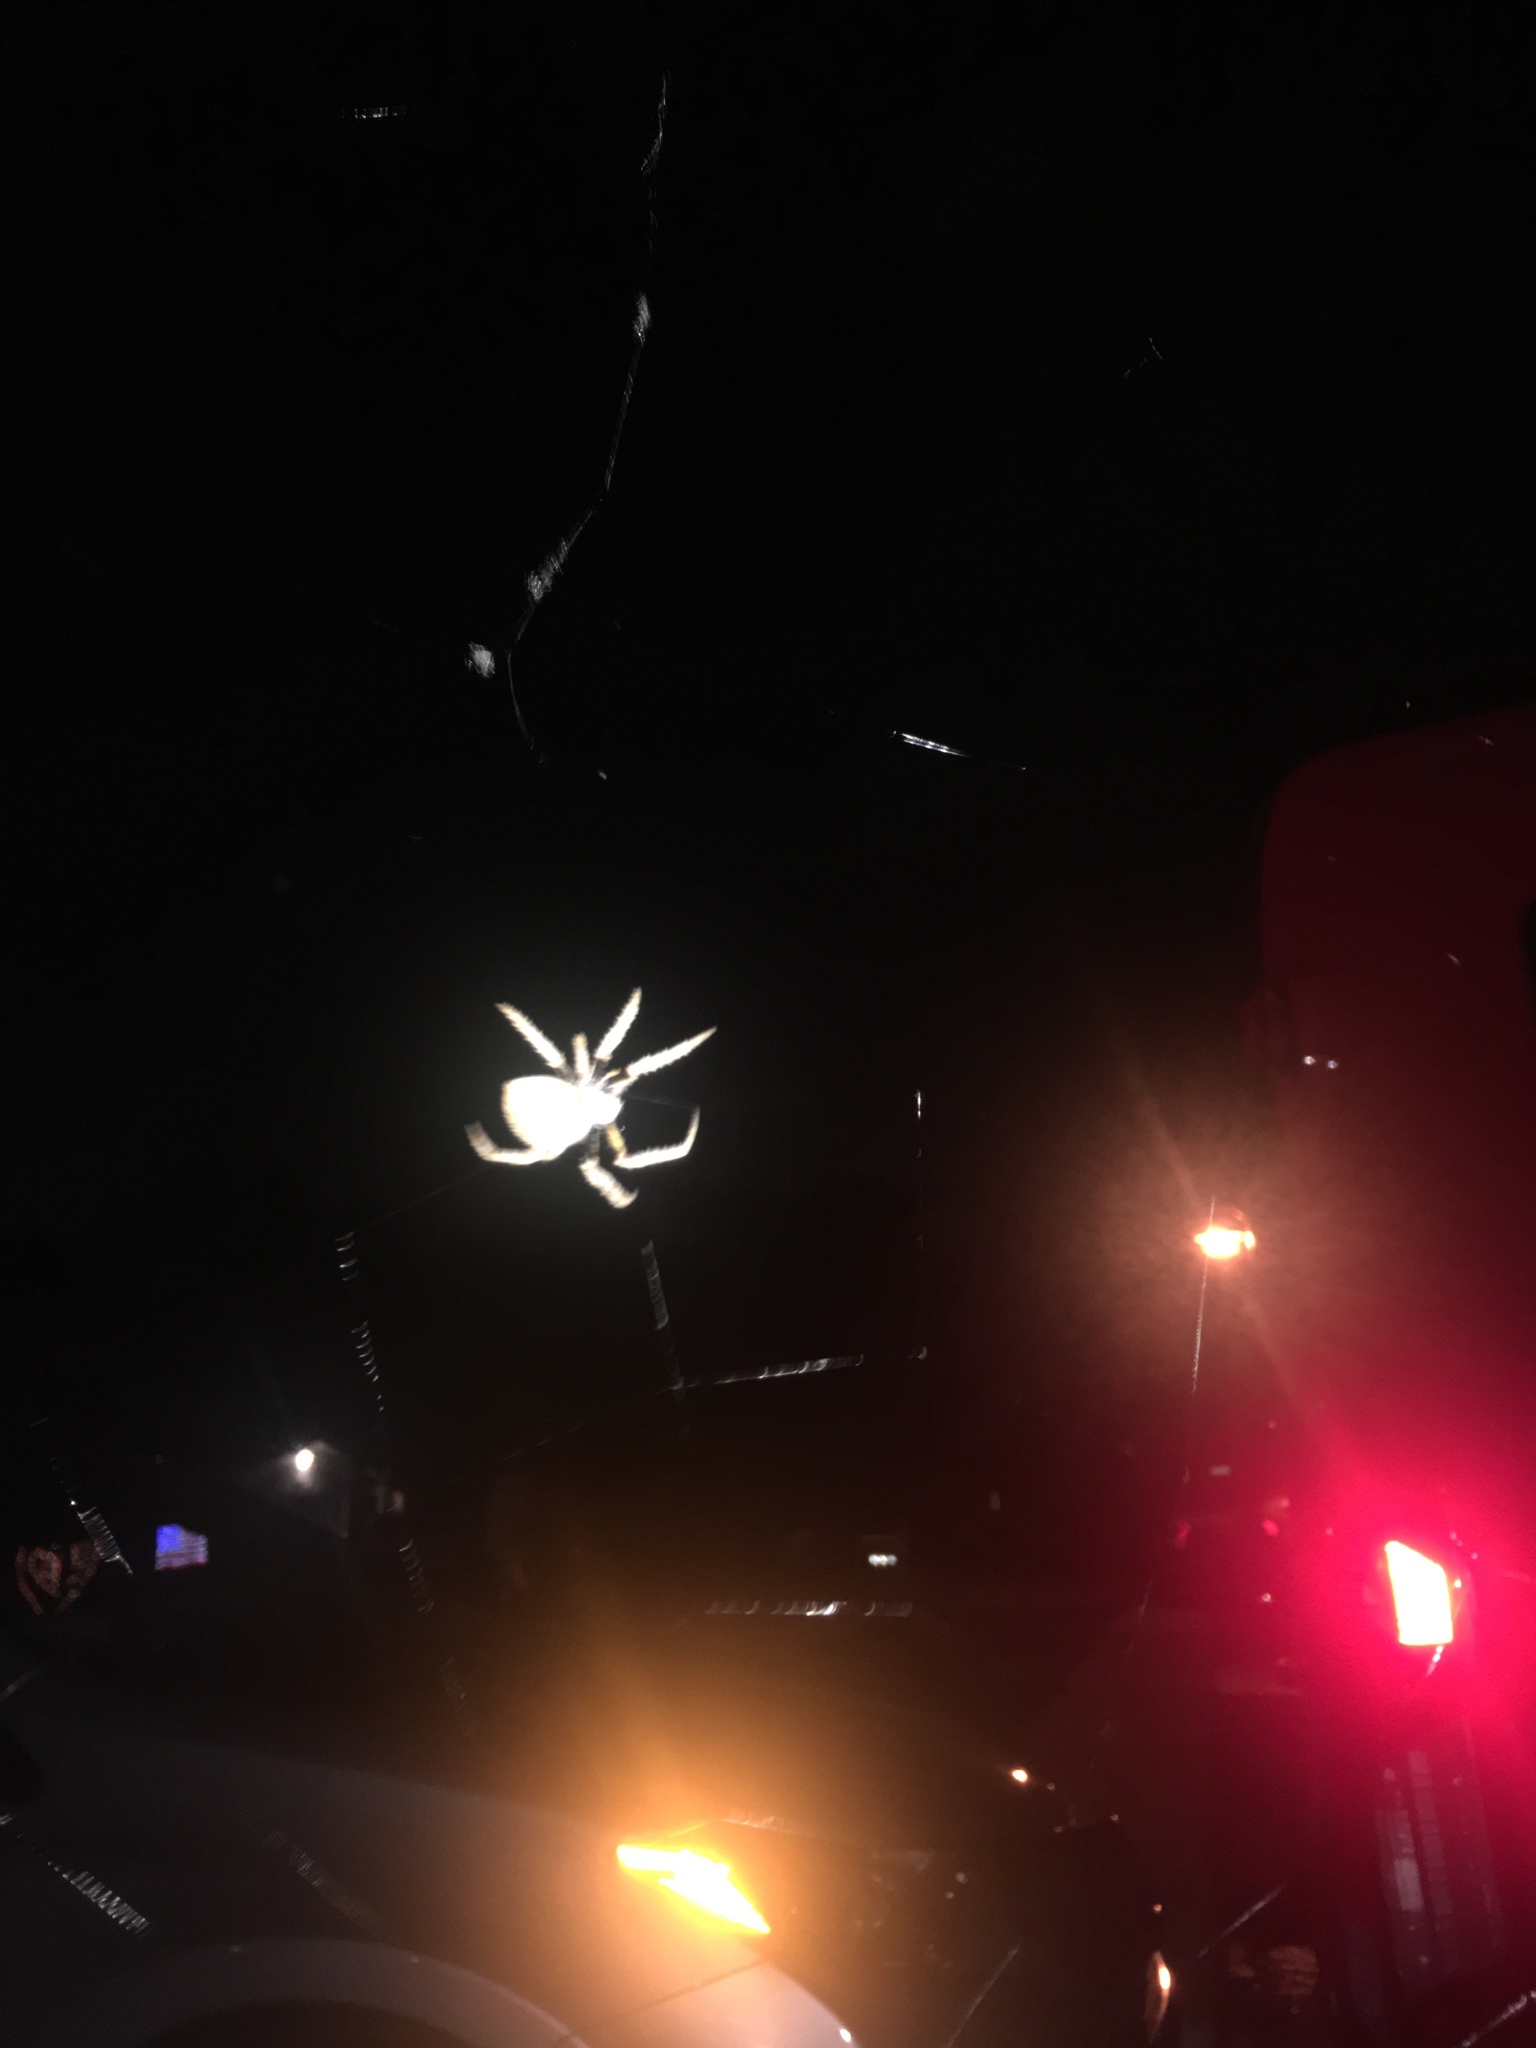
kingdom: Animalia
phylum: Arthropoda
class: Arachnida
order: Araneae
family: Araneidae
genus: Eriophora
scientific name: Eriophora ravilla
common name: Orb weavers
